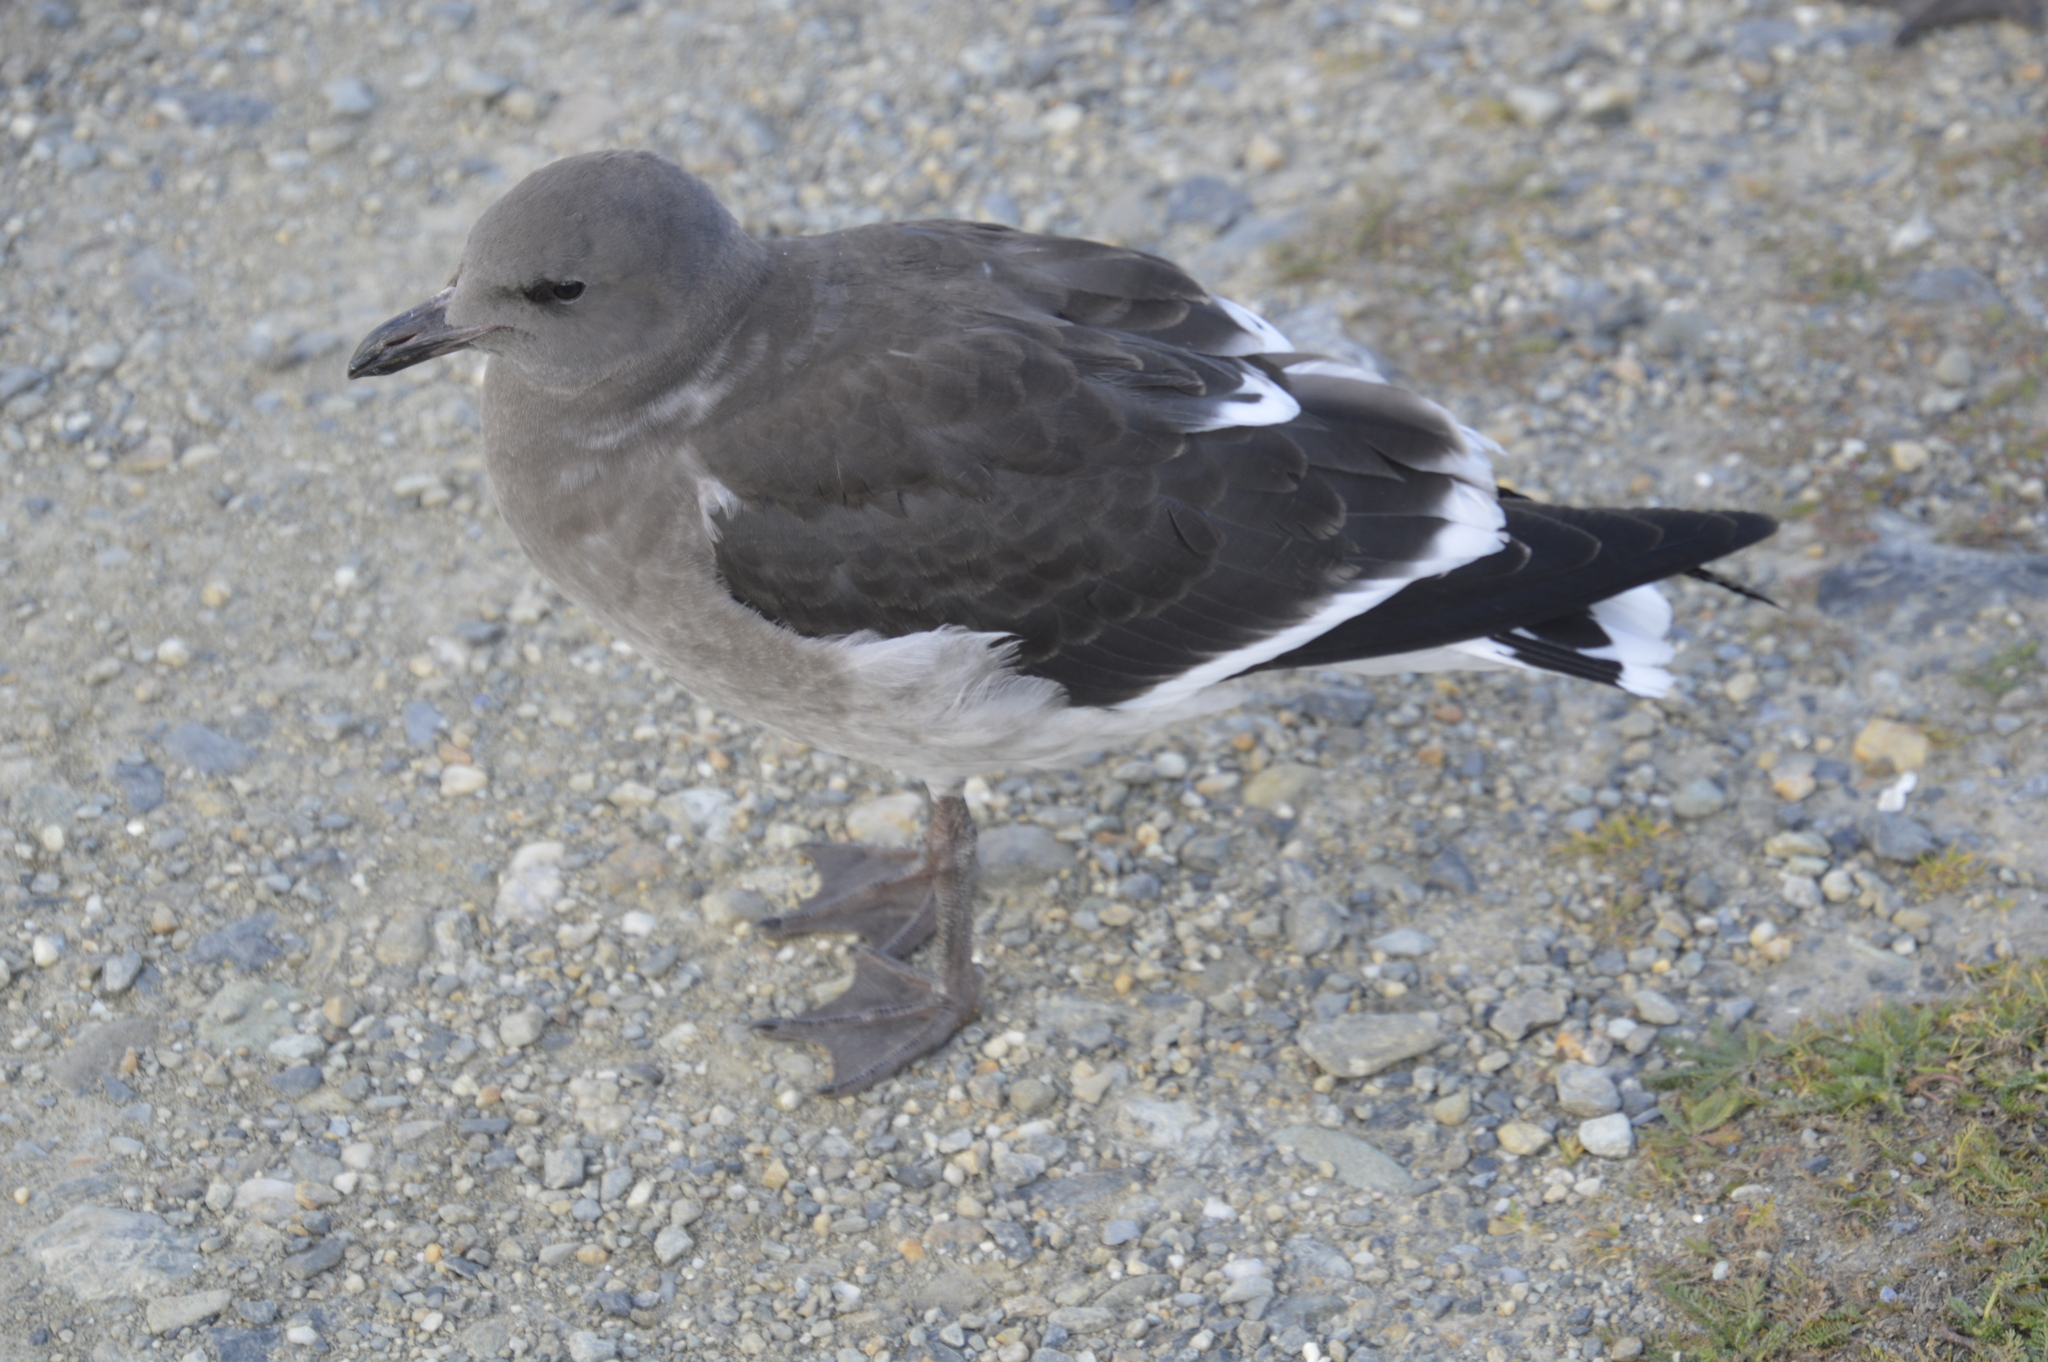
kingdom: Animalia
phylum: Chordata
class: Aves
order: Charadriiformes
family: Laridae
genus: Leucophaeus
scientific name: Leucophaeus scoresbii
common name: Dolphin gull
